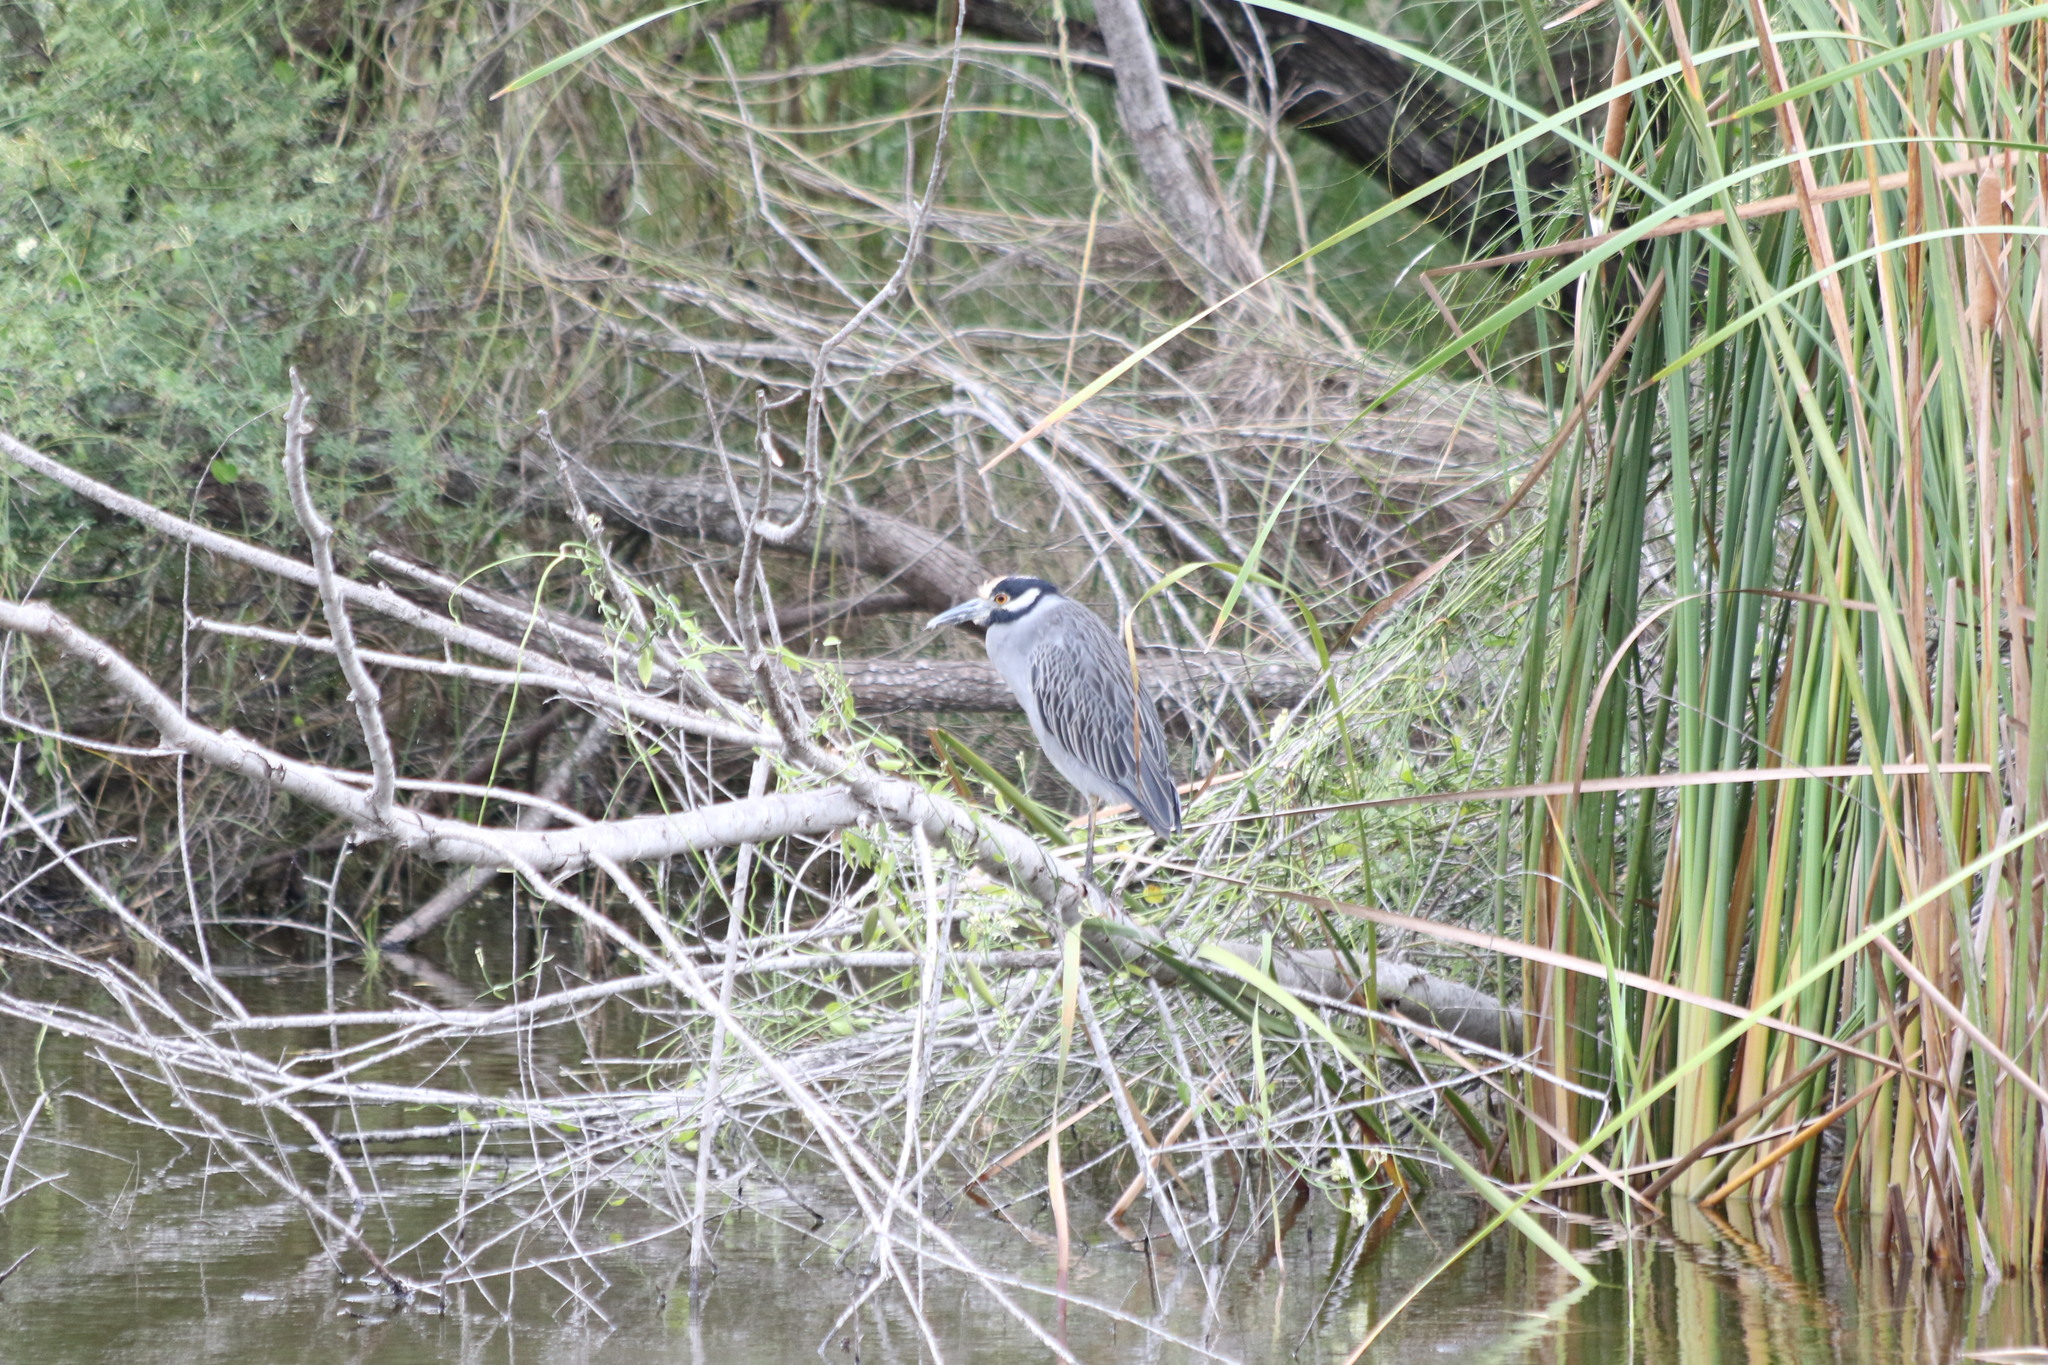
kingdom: Animalia
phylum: Chordata
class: Aves
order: Pelecaniformes
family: Ardeidae
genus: Nyctanassa
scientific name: Nyctanassa violacea
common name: Yellow-crowned night heron
